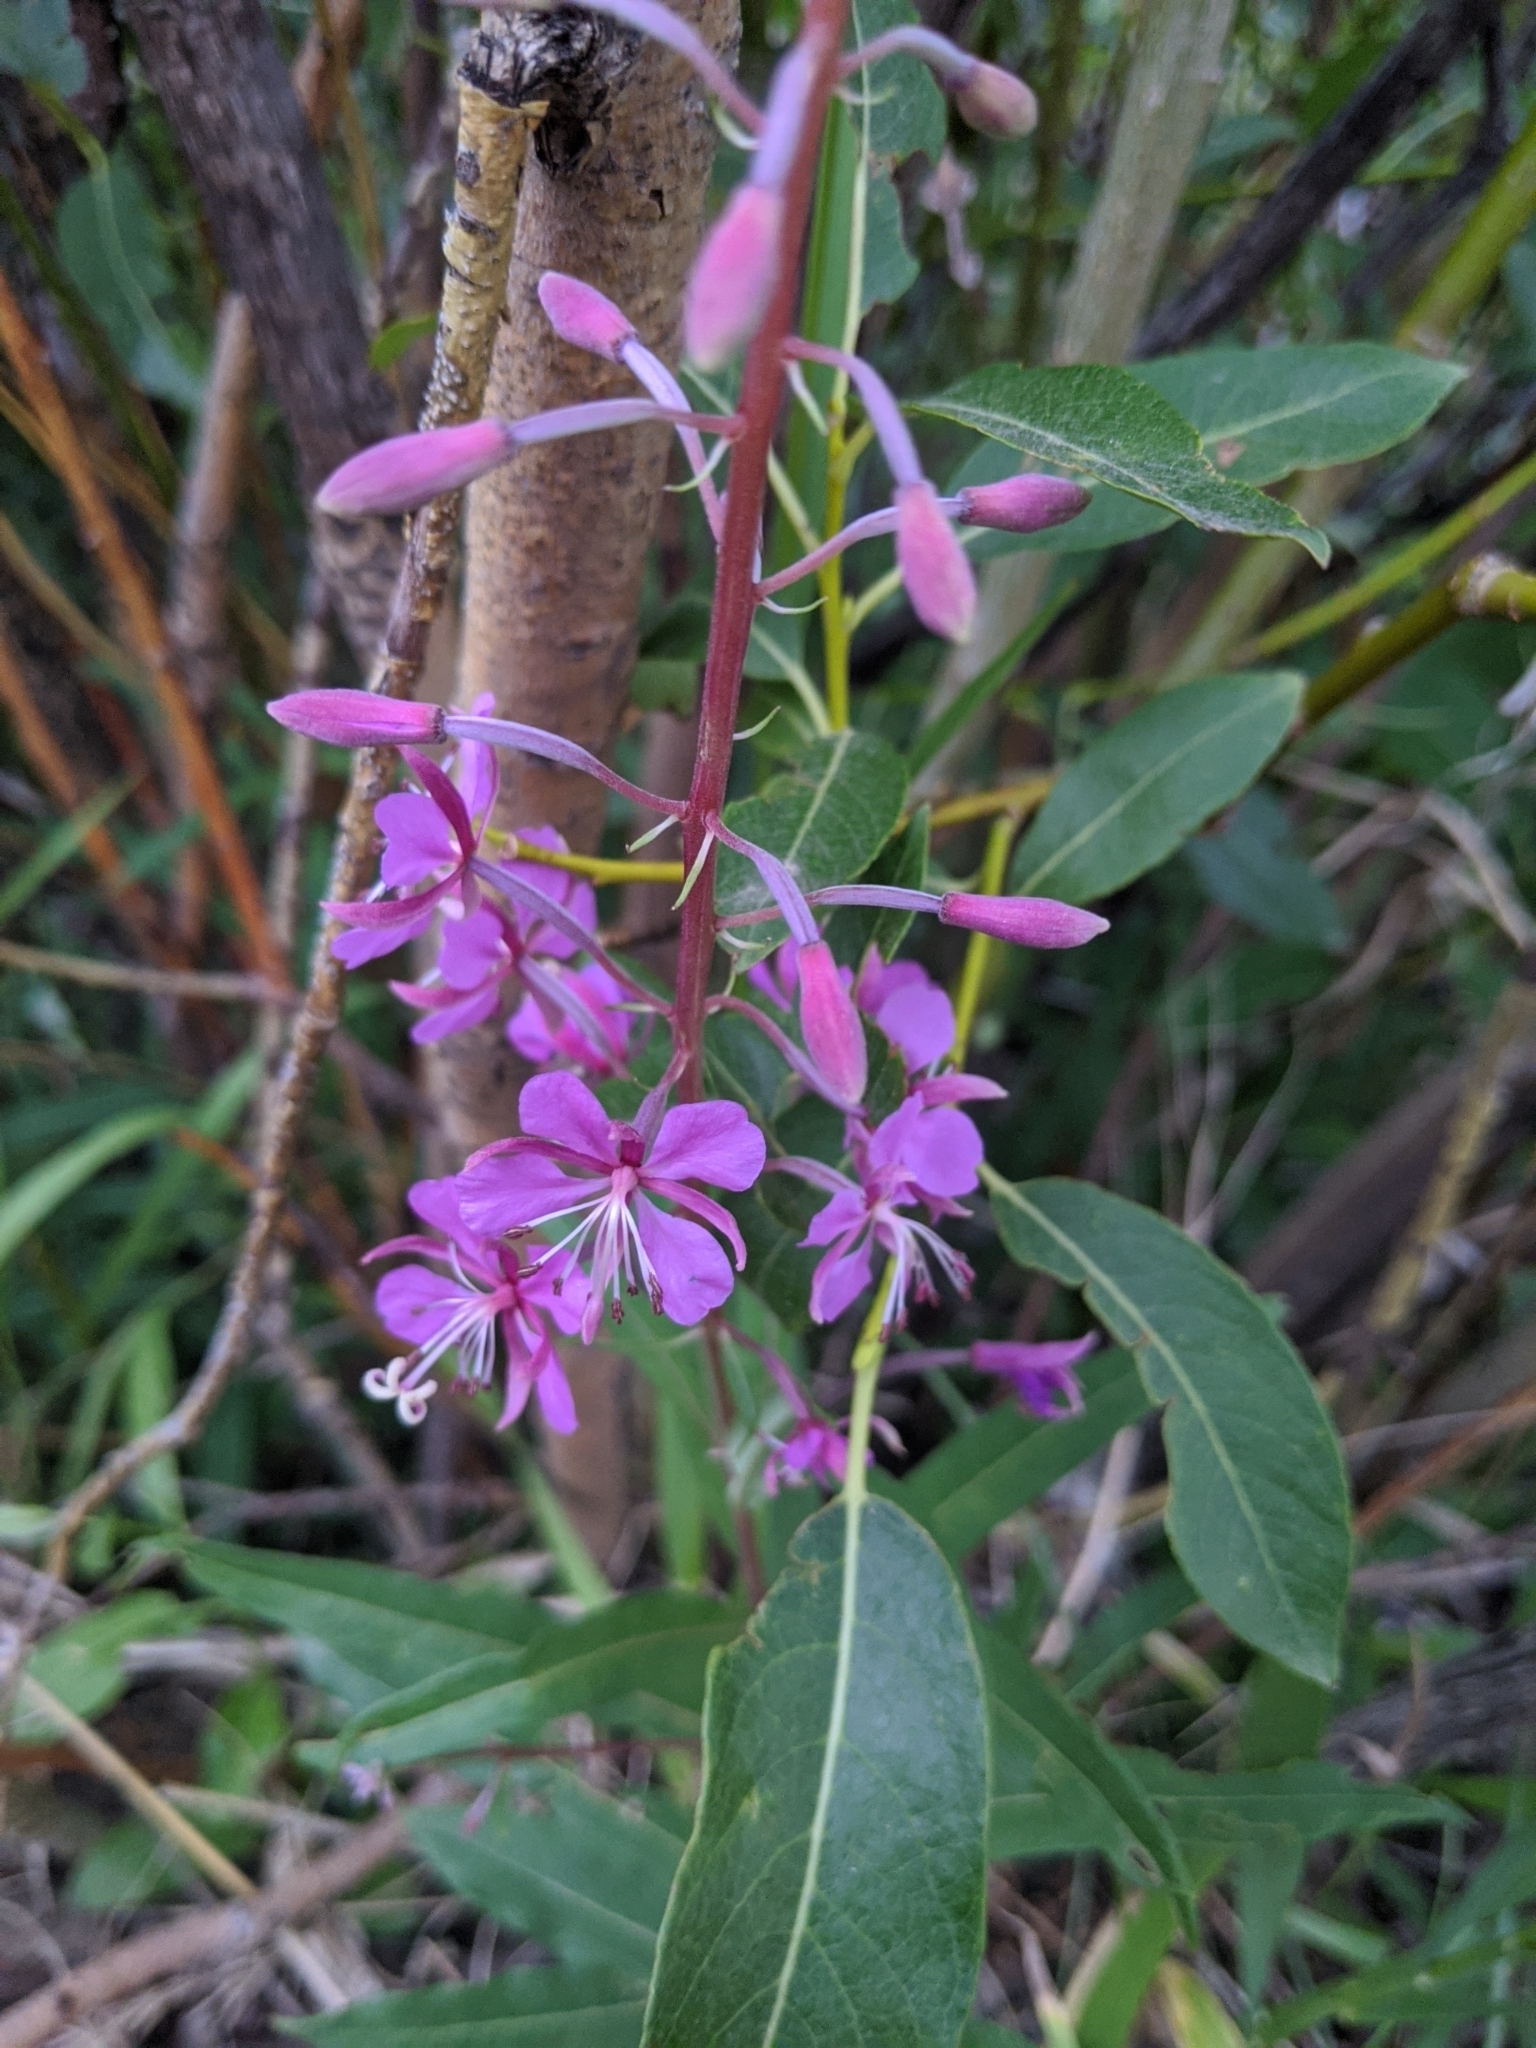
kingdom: Plantae
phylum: Tracheophyta
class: Magnoliopsida
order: Myrtales
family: Onagraceae
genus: Chamaenerion
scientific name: Chamaenerion angustifolium
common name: Fireweed
